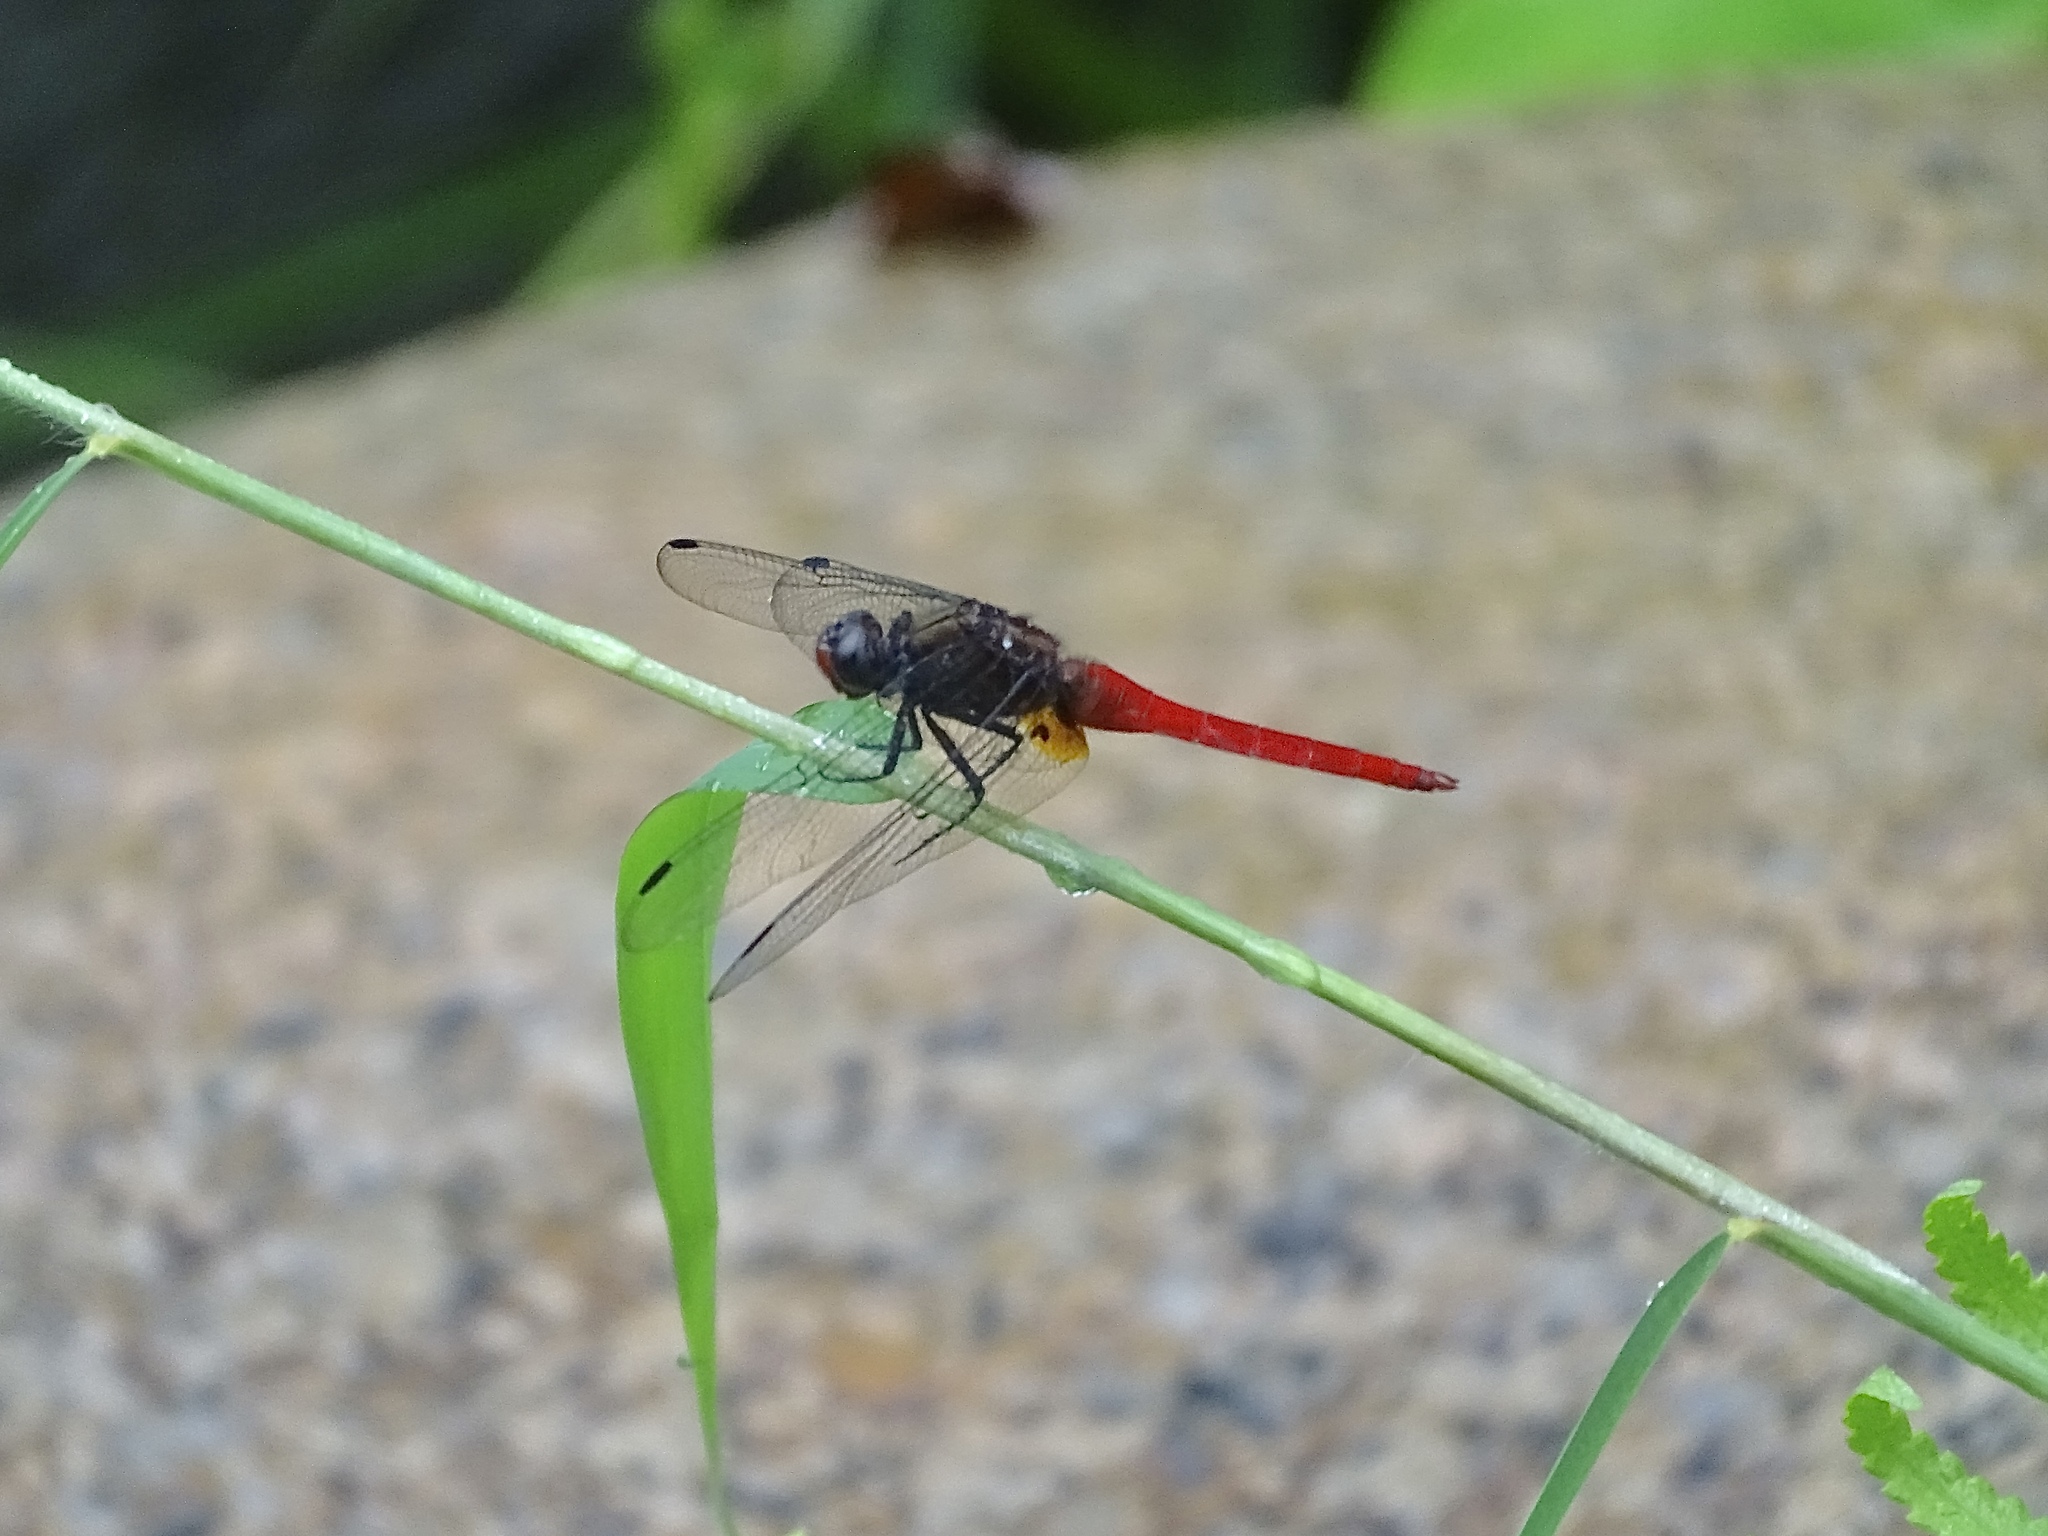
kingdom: Animalia
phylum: Arthropoda
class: Insecta
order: Odonata
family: Libellulidae
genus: Orthetrum
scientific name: Orthetrum chrysis
